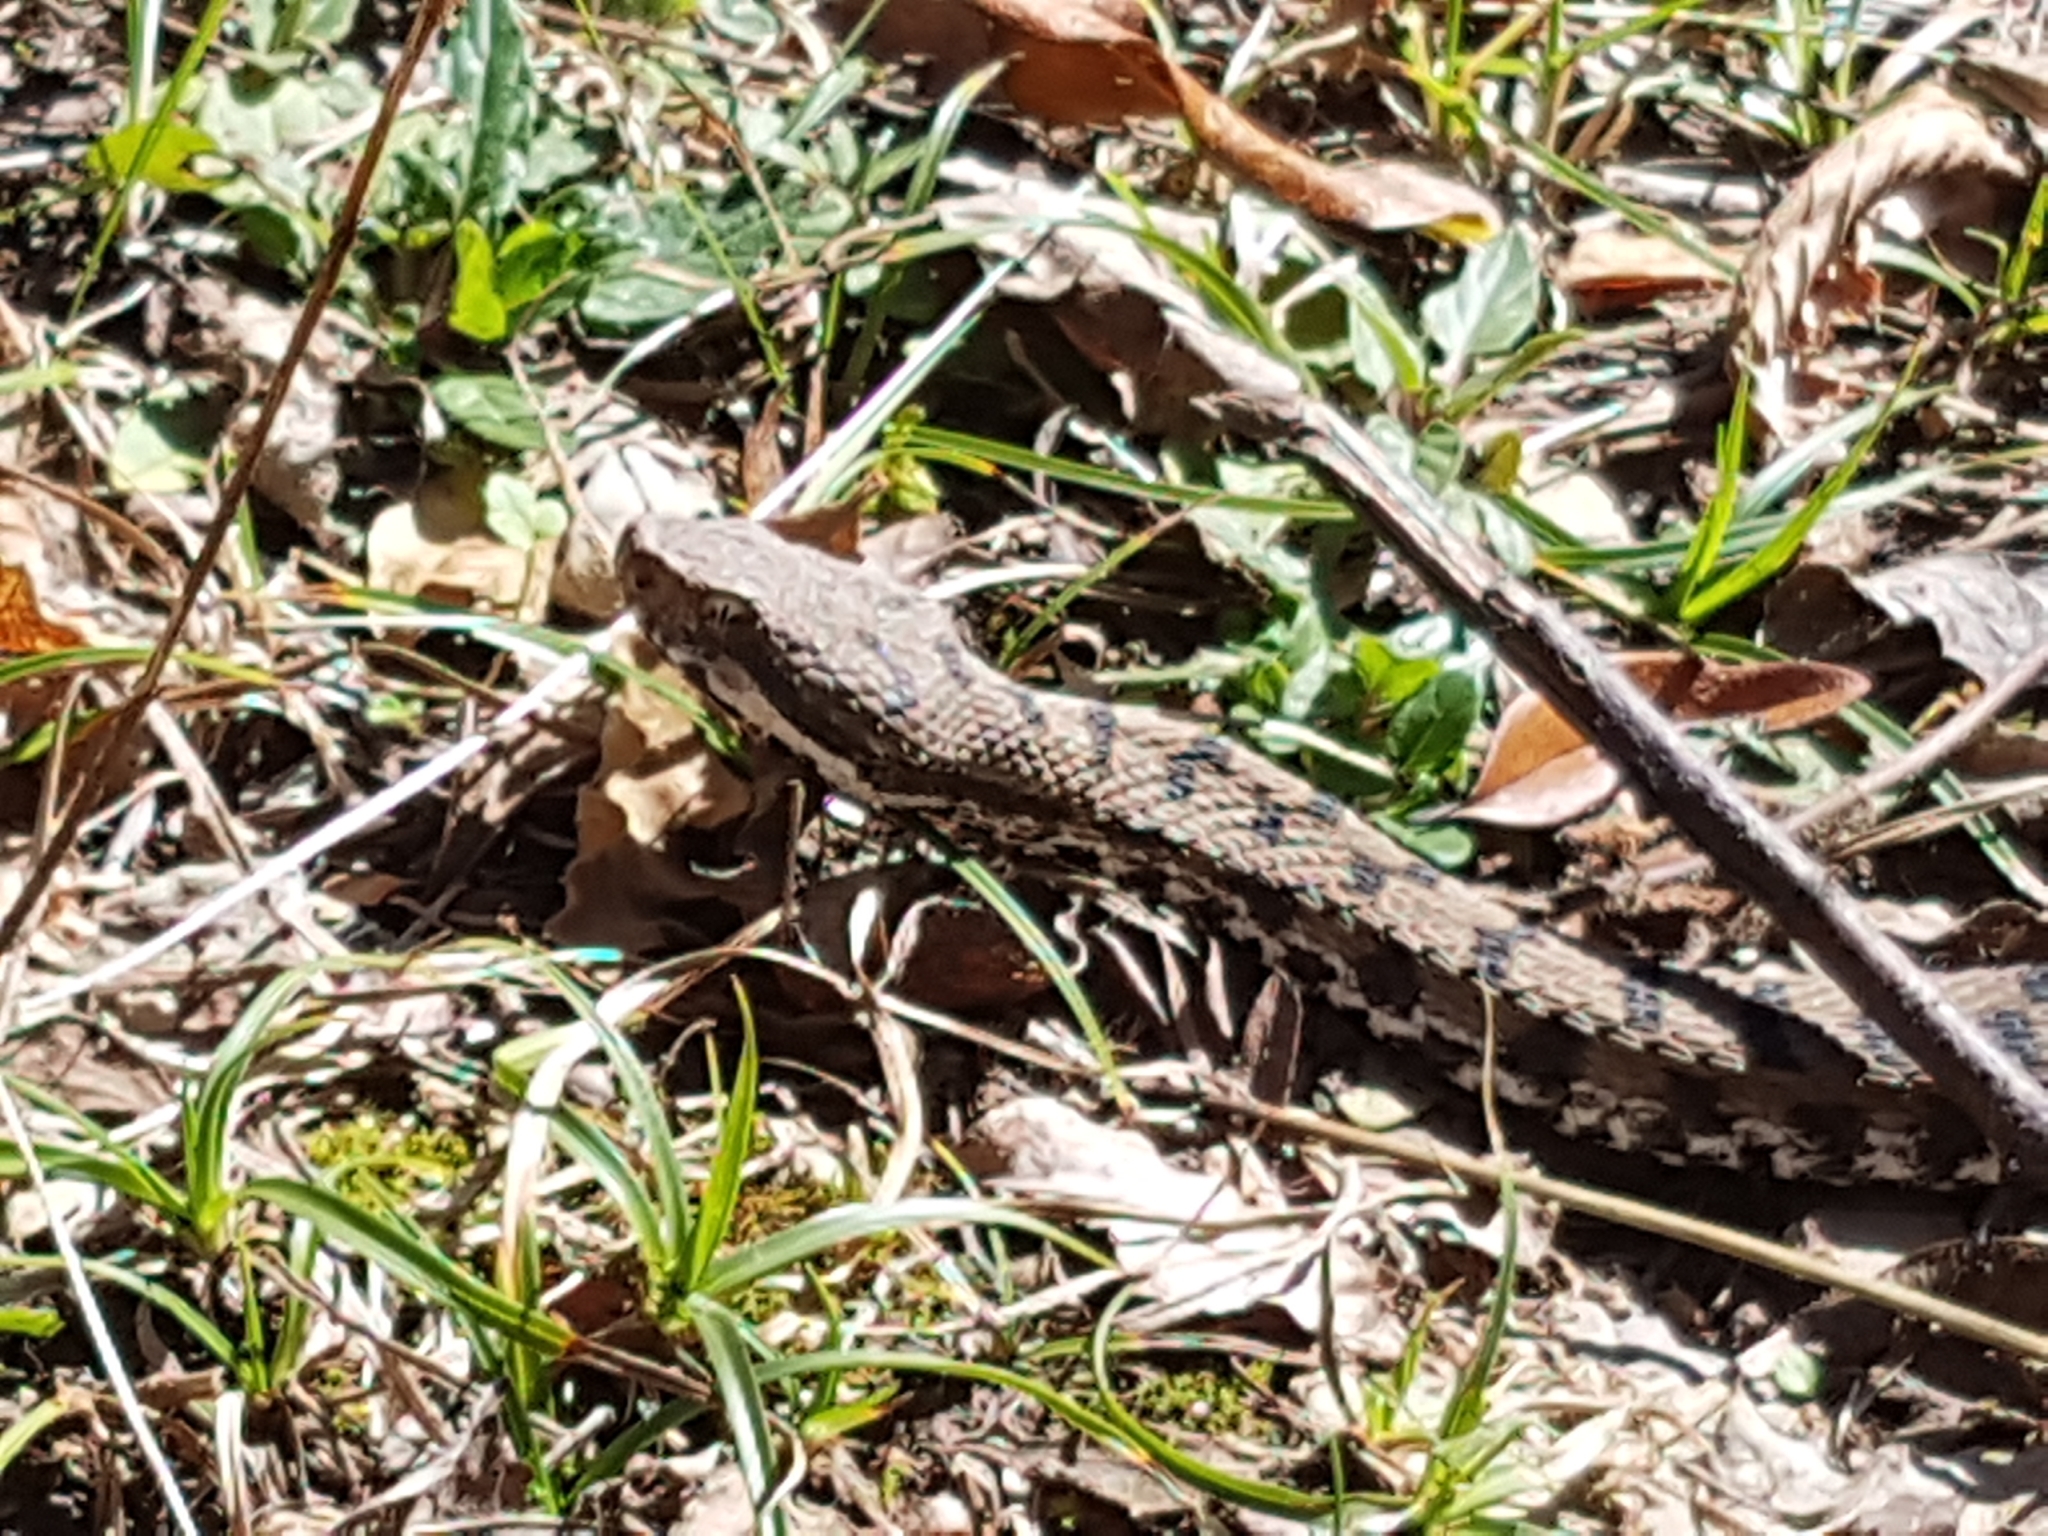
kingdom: Animalia
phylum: Chordata
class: Squamata
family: Viperidae
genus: Vipera
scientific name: Vipera aspis
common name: Asp viper
